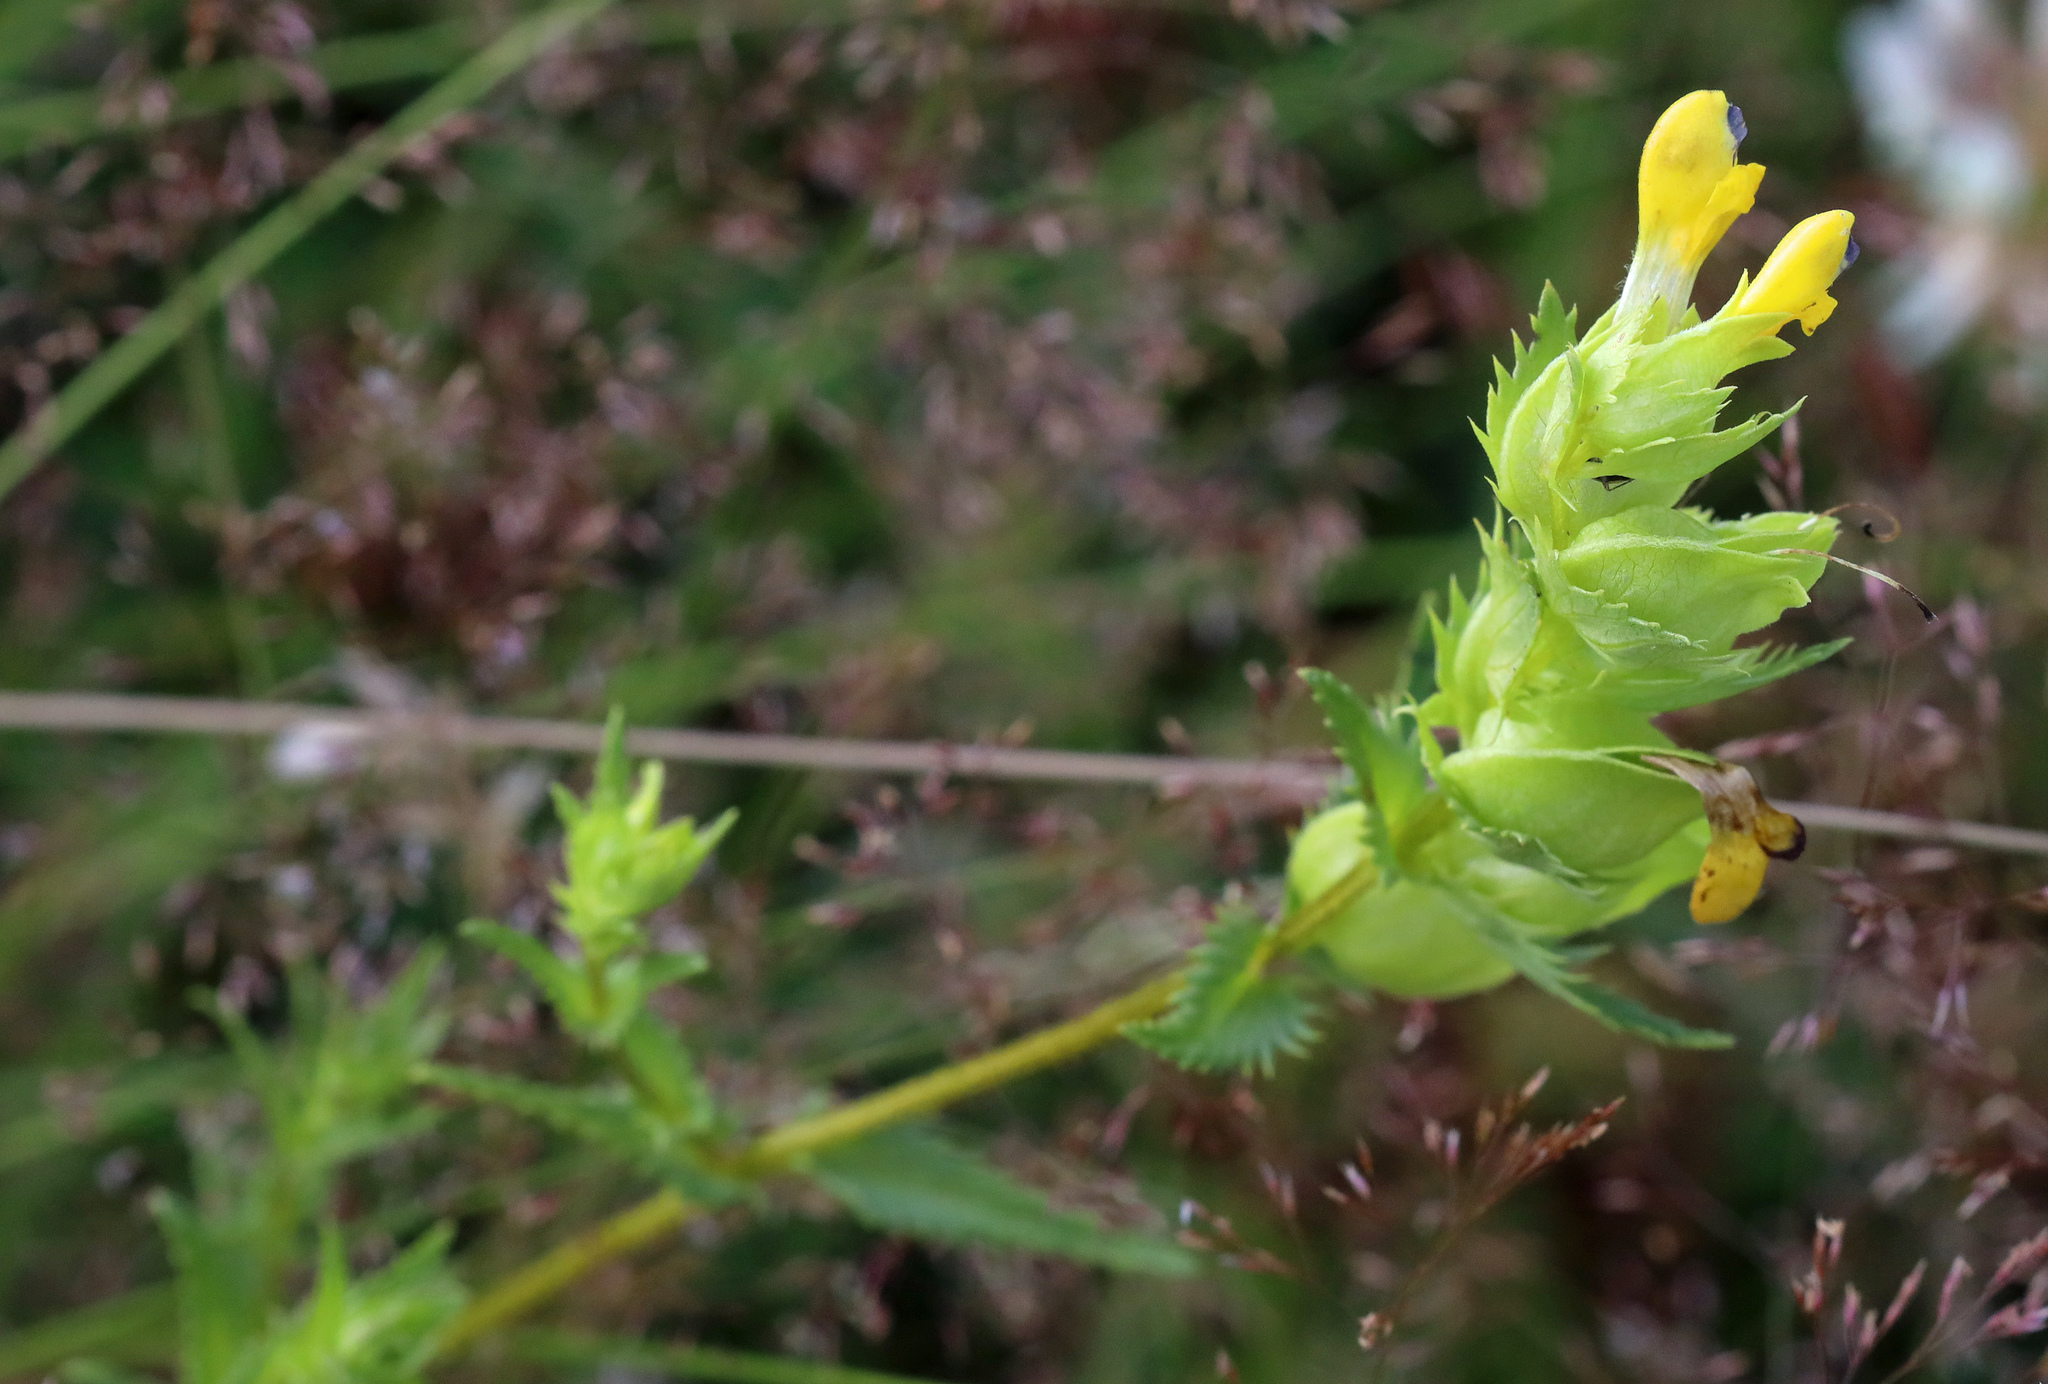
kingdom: Plantae
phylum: Tracheophyta
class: Magnoliopsida
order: Lamiales
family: Orobanchaceae
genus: Rhinanthus
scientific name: Rhinanthus minor
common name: Yellow-rattle
